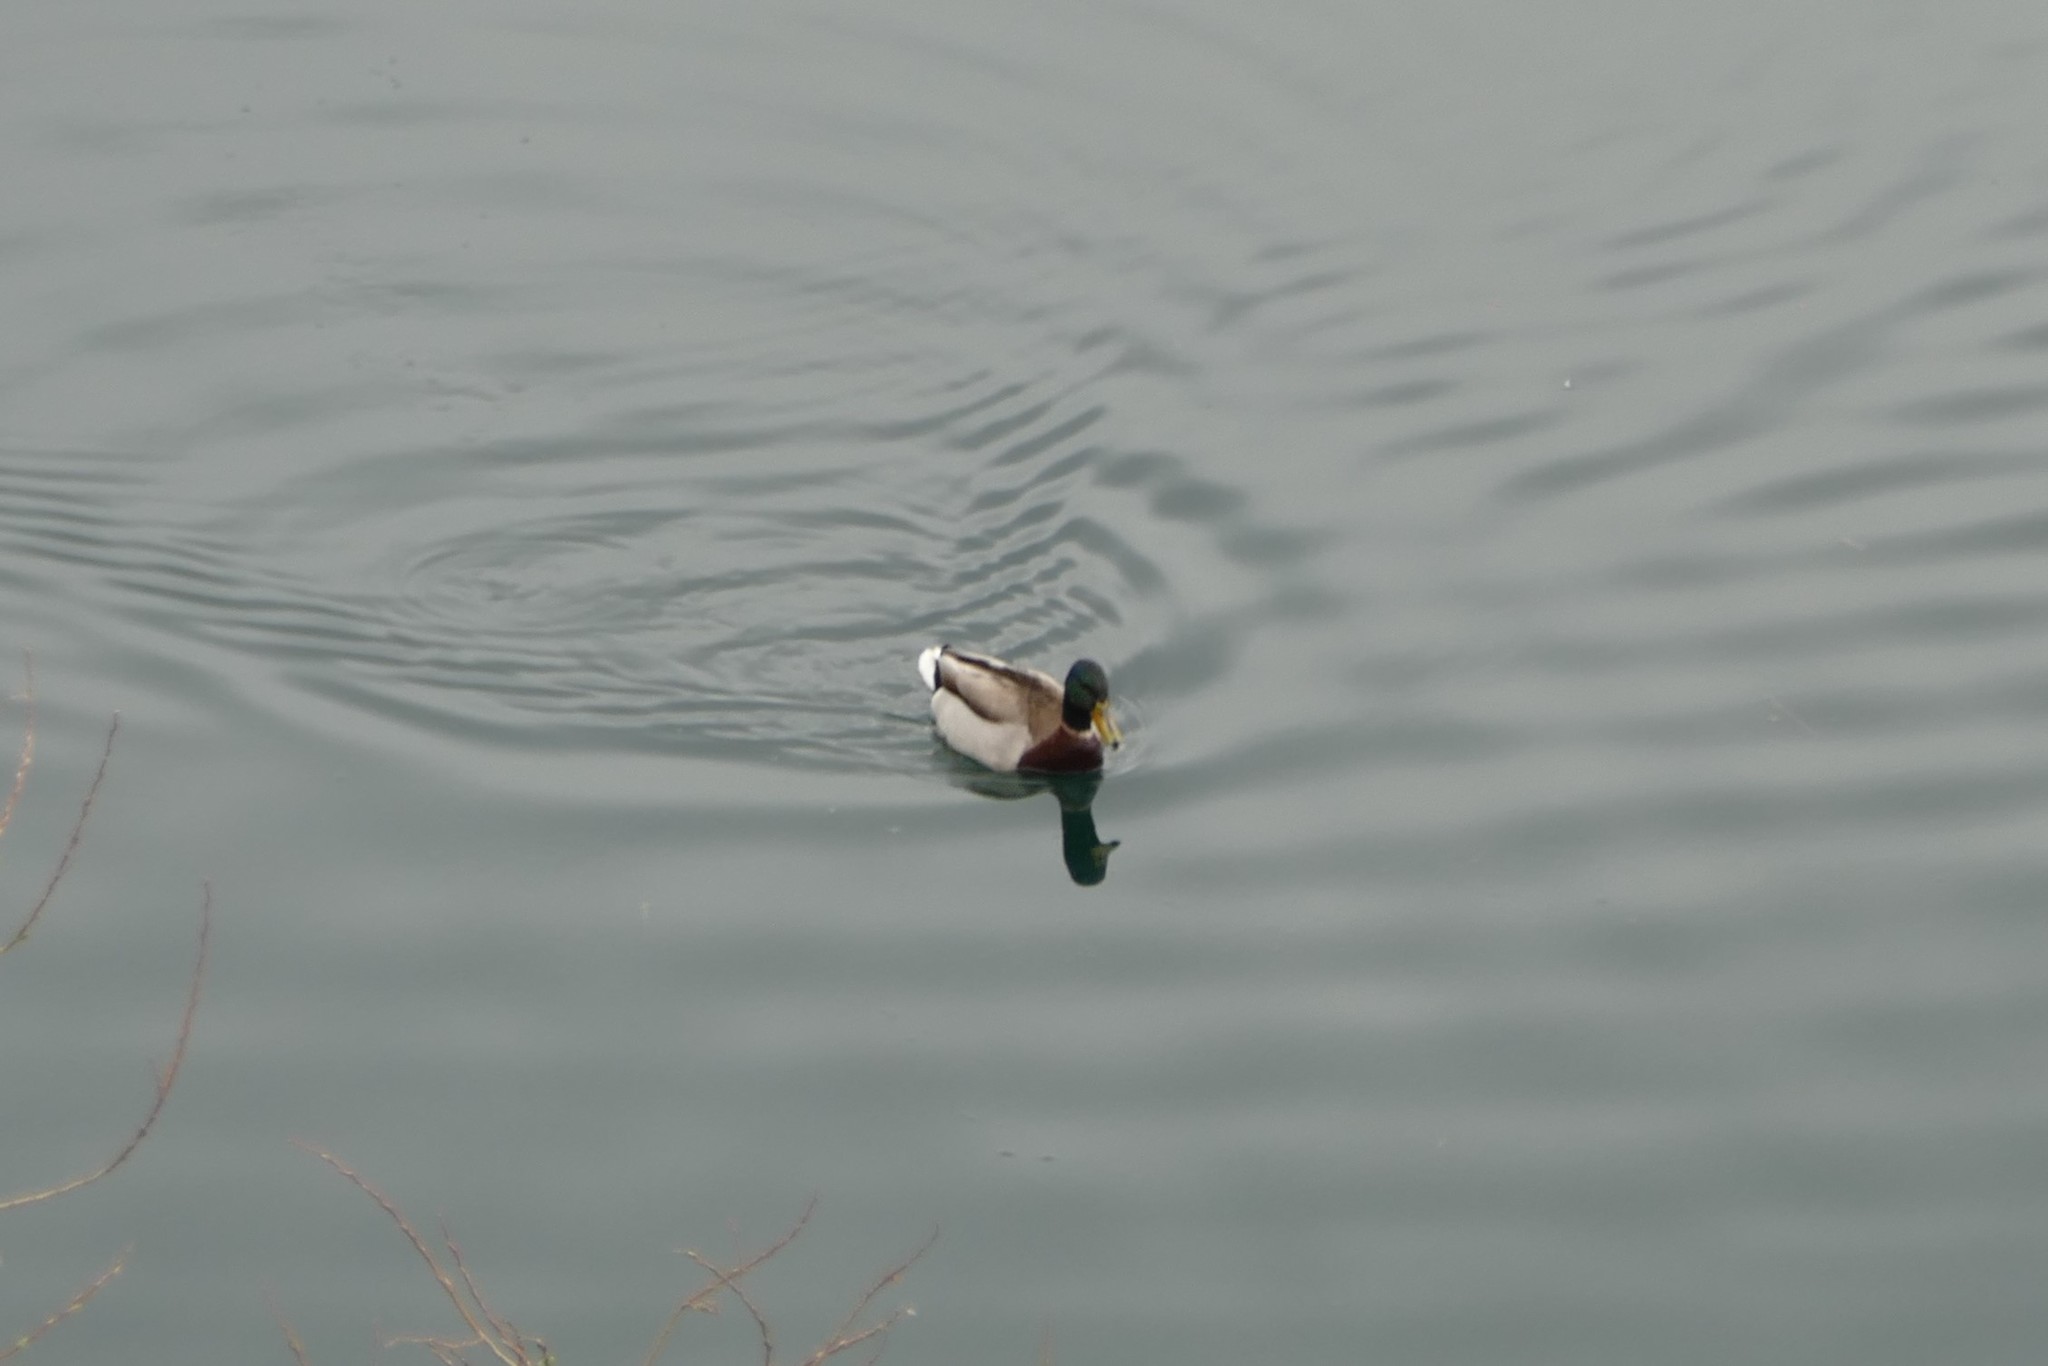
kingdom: Animalia
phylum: Chordata
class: Aves
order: Anseriformes
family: Anatidae
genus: Anas
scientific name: Anas platyrhynchos
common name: Mallard
